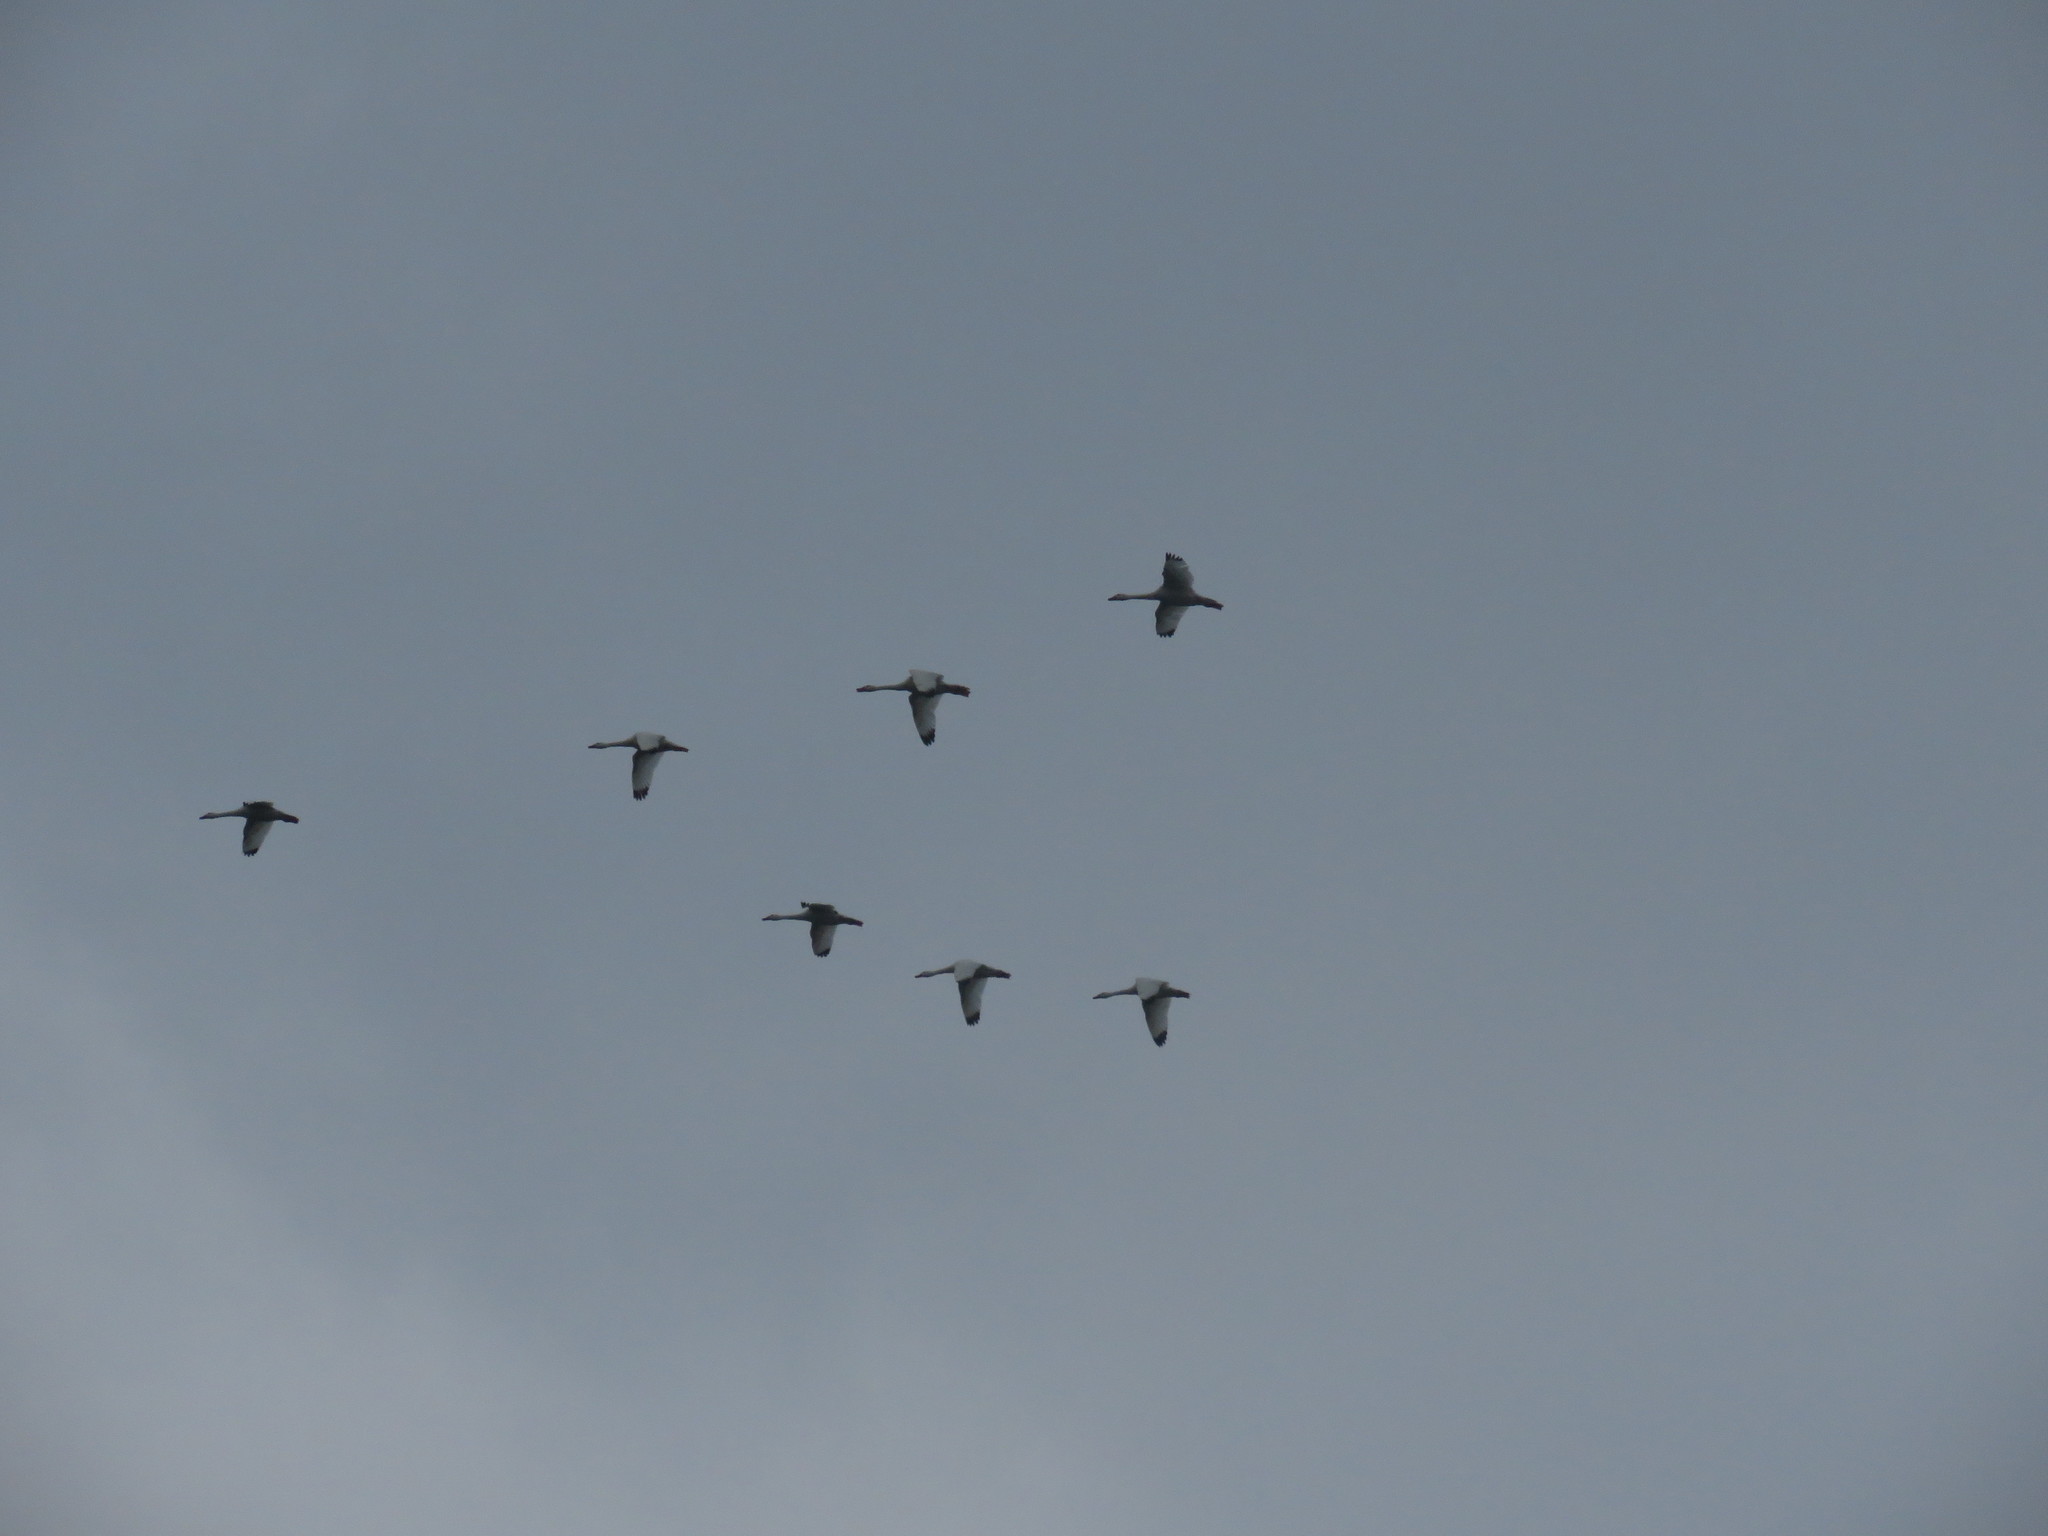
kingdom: Animalia
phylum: Chordata
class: Aves
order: Anseriformes
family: Anatidae
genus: Coscoroba
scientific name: Coscoroba coscoroba
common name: Coscoroba swan
